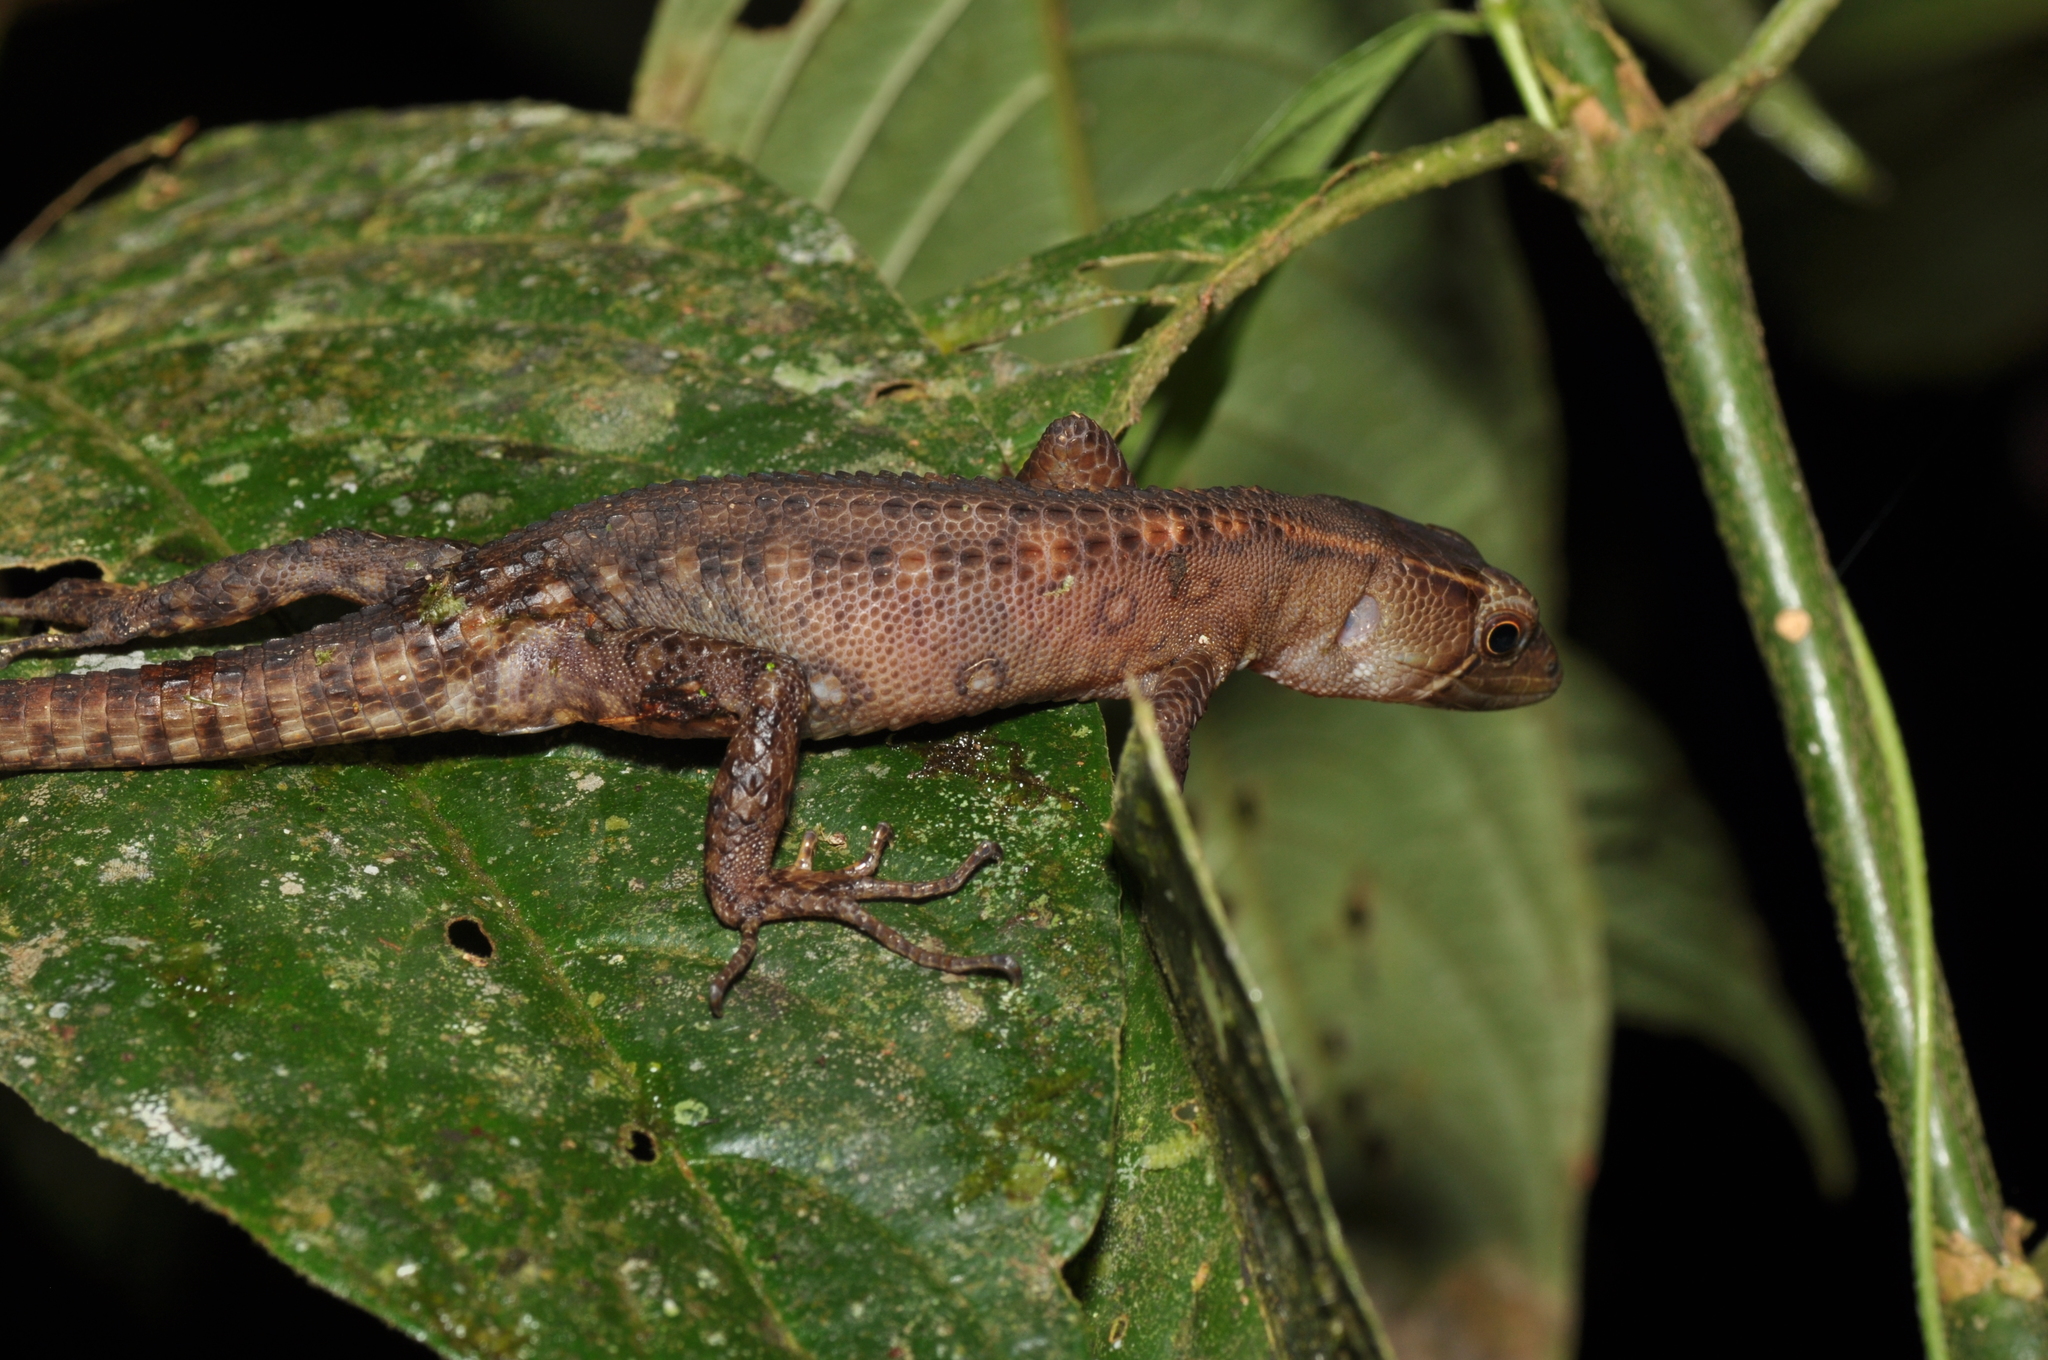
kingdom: Animalia
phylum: Chordata
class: Squamata
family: Gymnophthalmidae
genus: Gelanesaurus
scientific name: Gelanesaurus cochranae
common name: Cochran's neusticurus
